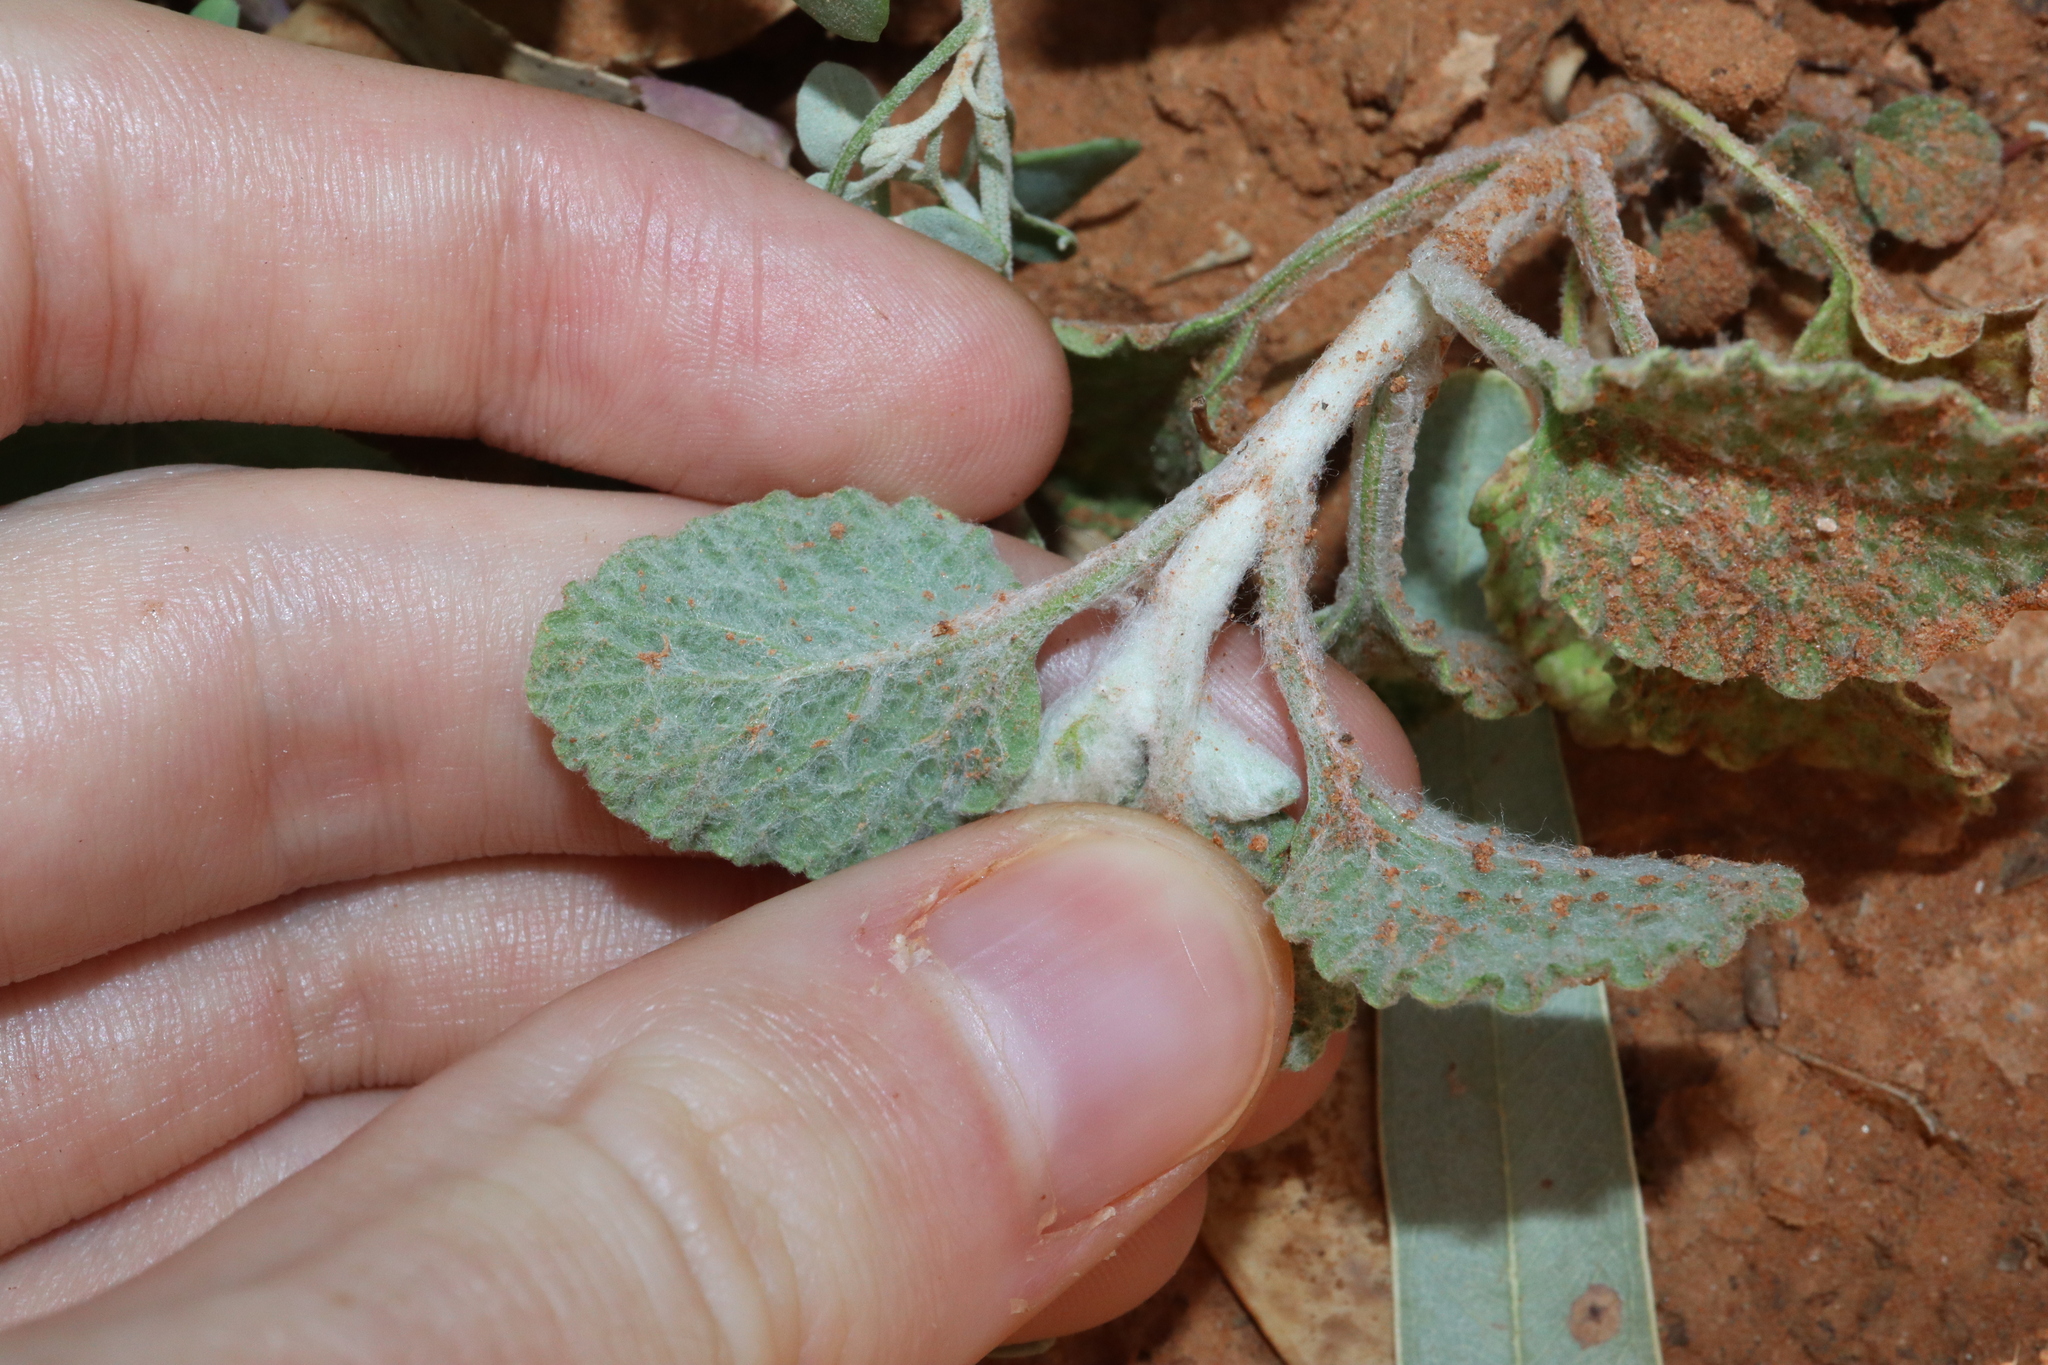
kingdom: Plantae
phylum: Tracheophyta
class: Magnoliopsida
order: Lamiales
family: Lamiaceae
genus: Marrubium
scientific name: Marrubium vulgare
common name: Horehound
